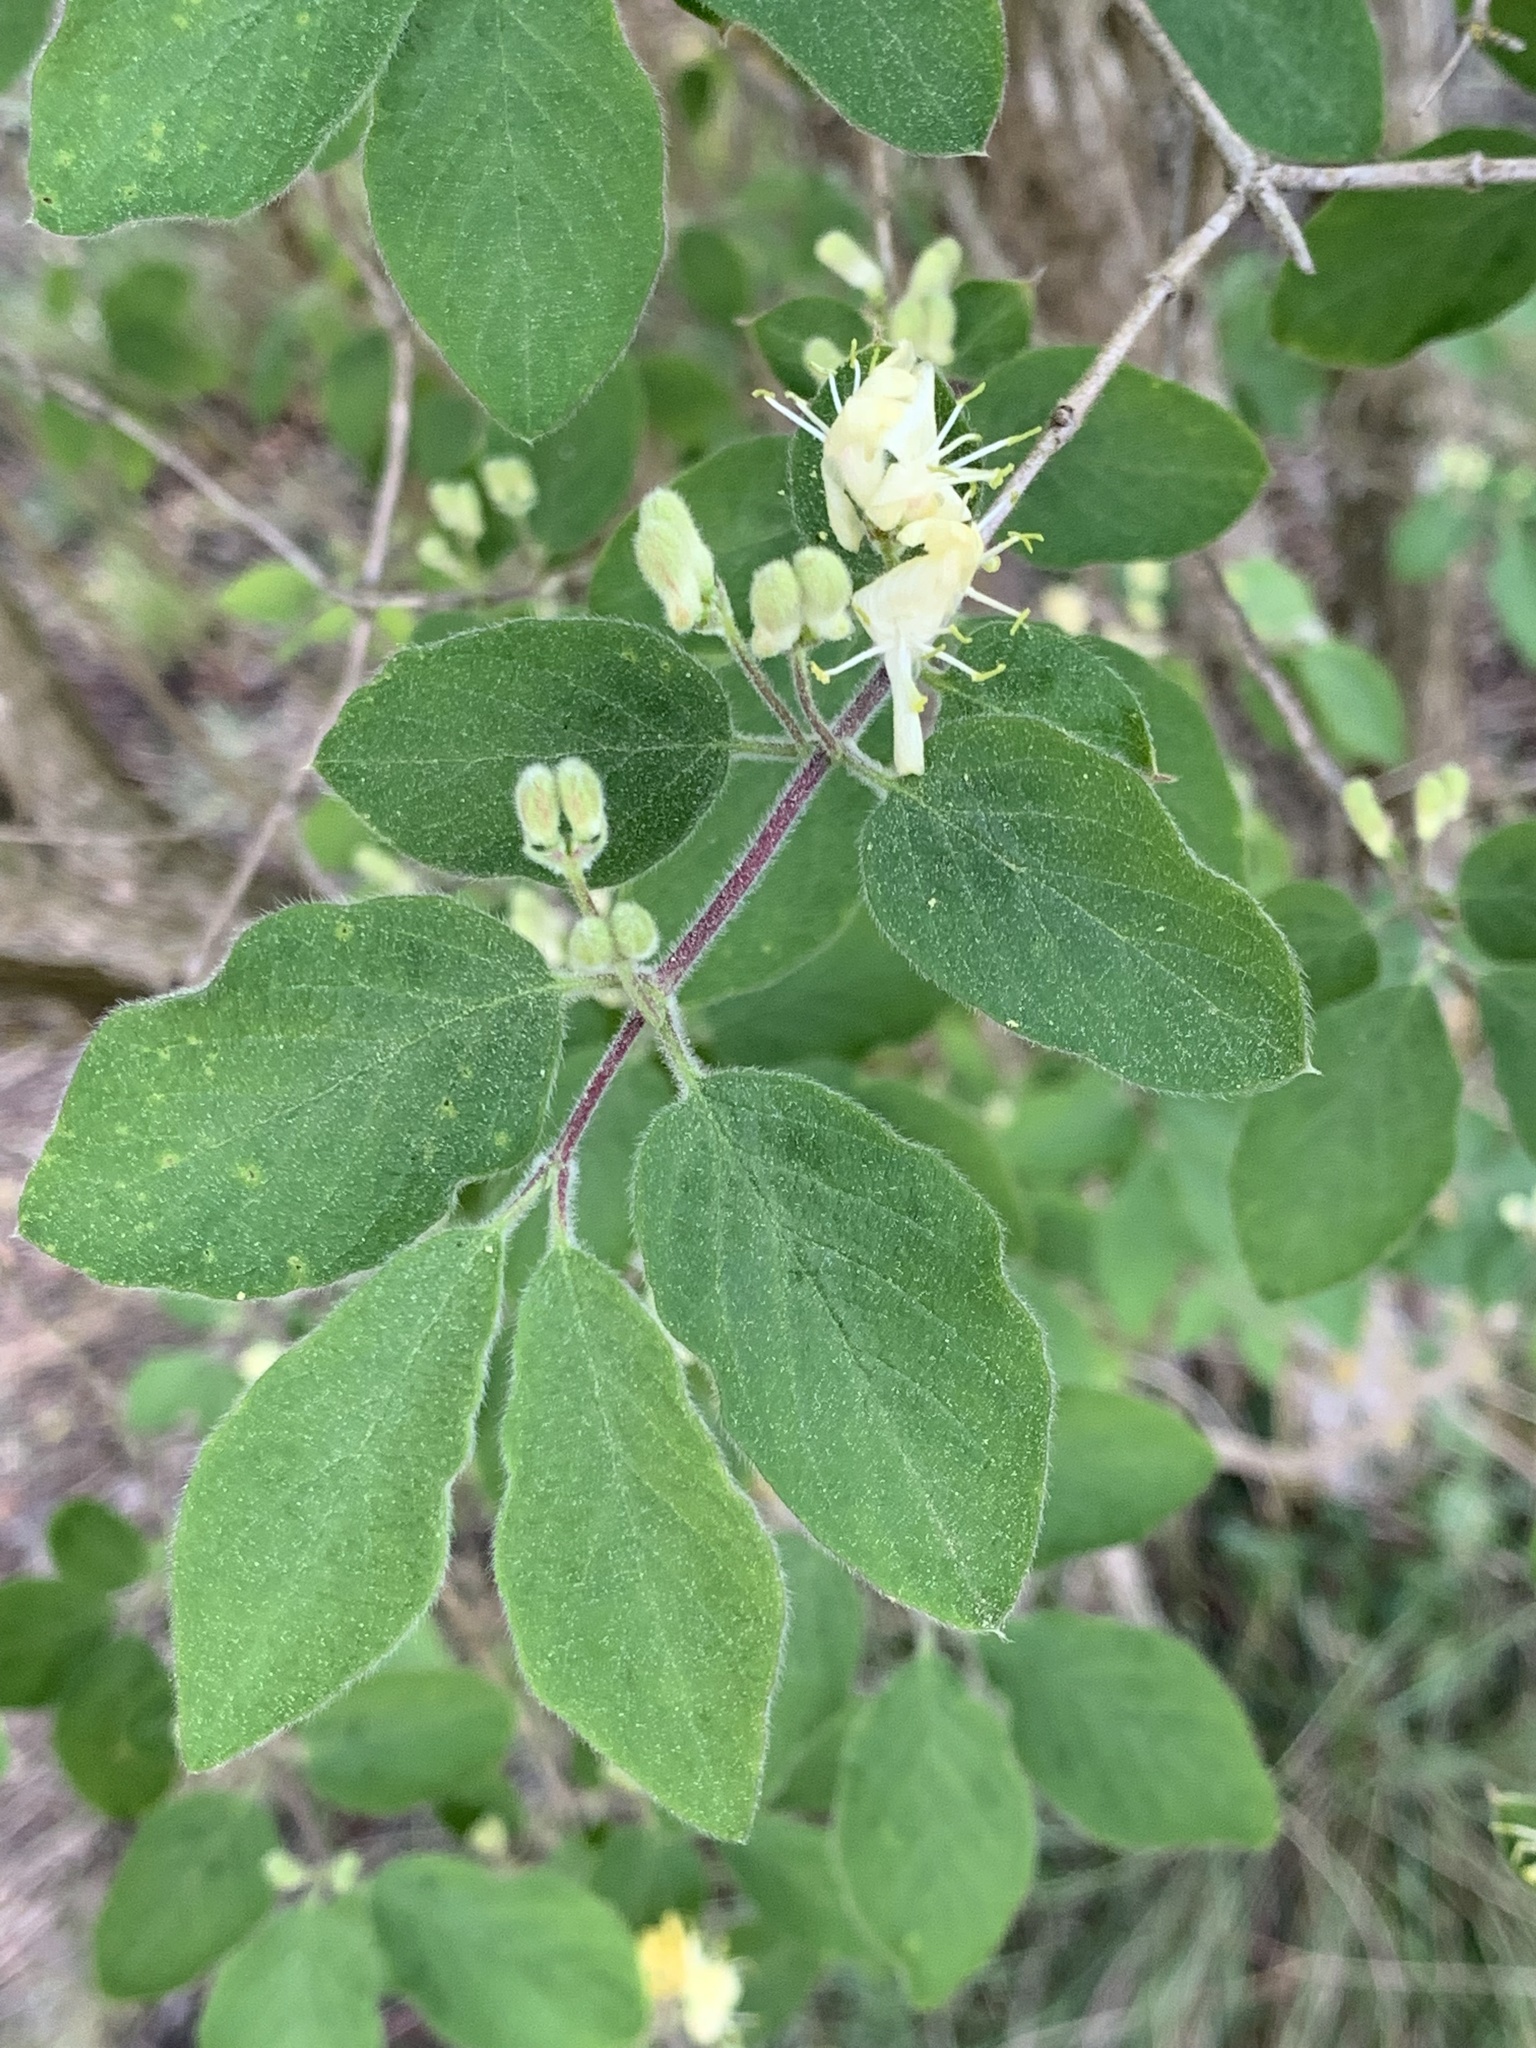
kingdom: Plantae
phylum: Tracheophyta
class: Magnoliopsida
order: Dipsacales
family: Caprifoliaceae
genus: Lonicera
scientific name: Lonicera xylosteum
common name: Fly honeysuckle
